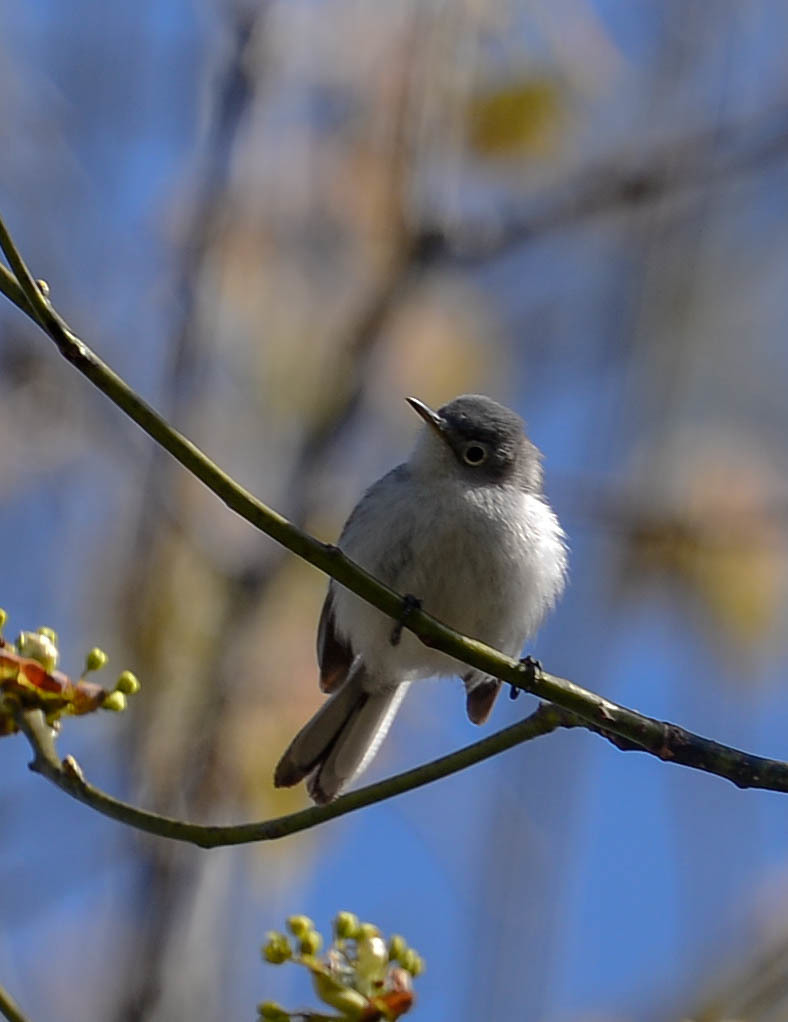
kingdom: Animalia
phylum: Chordata
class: Aves
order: Passeriformes
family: Polioptilidae
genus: Polioptila
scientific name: Polioptila caerulea
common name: Blue-gray gnatcatcher
